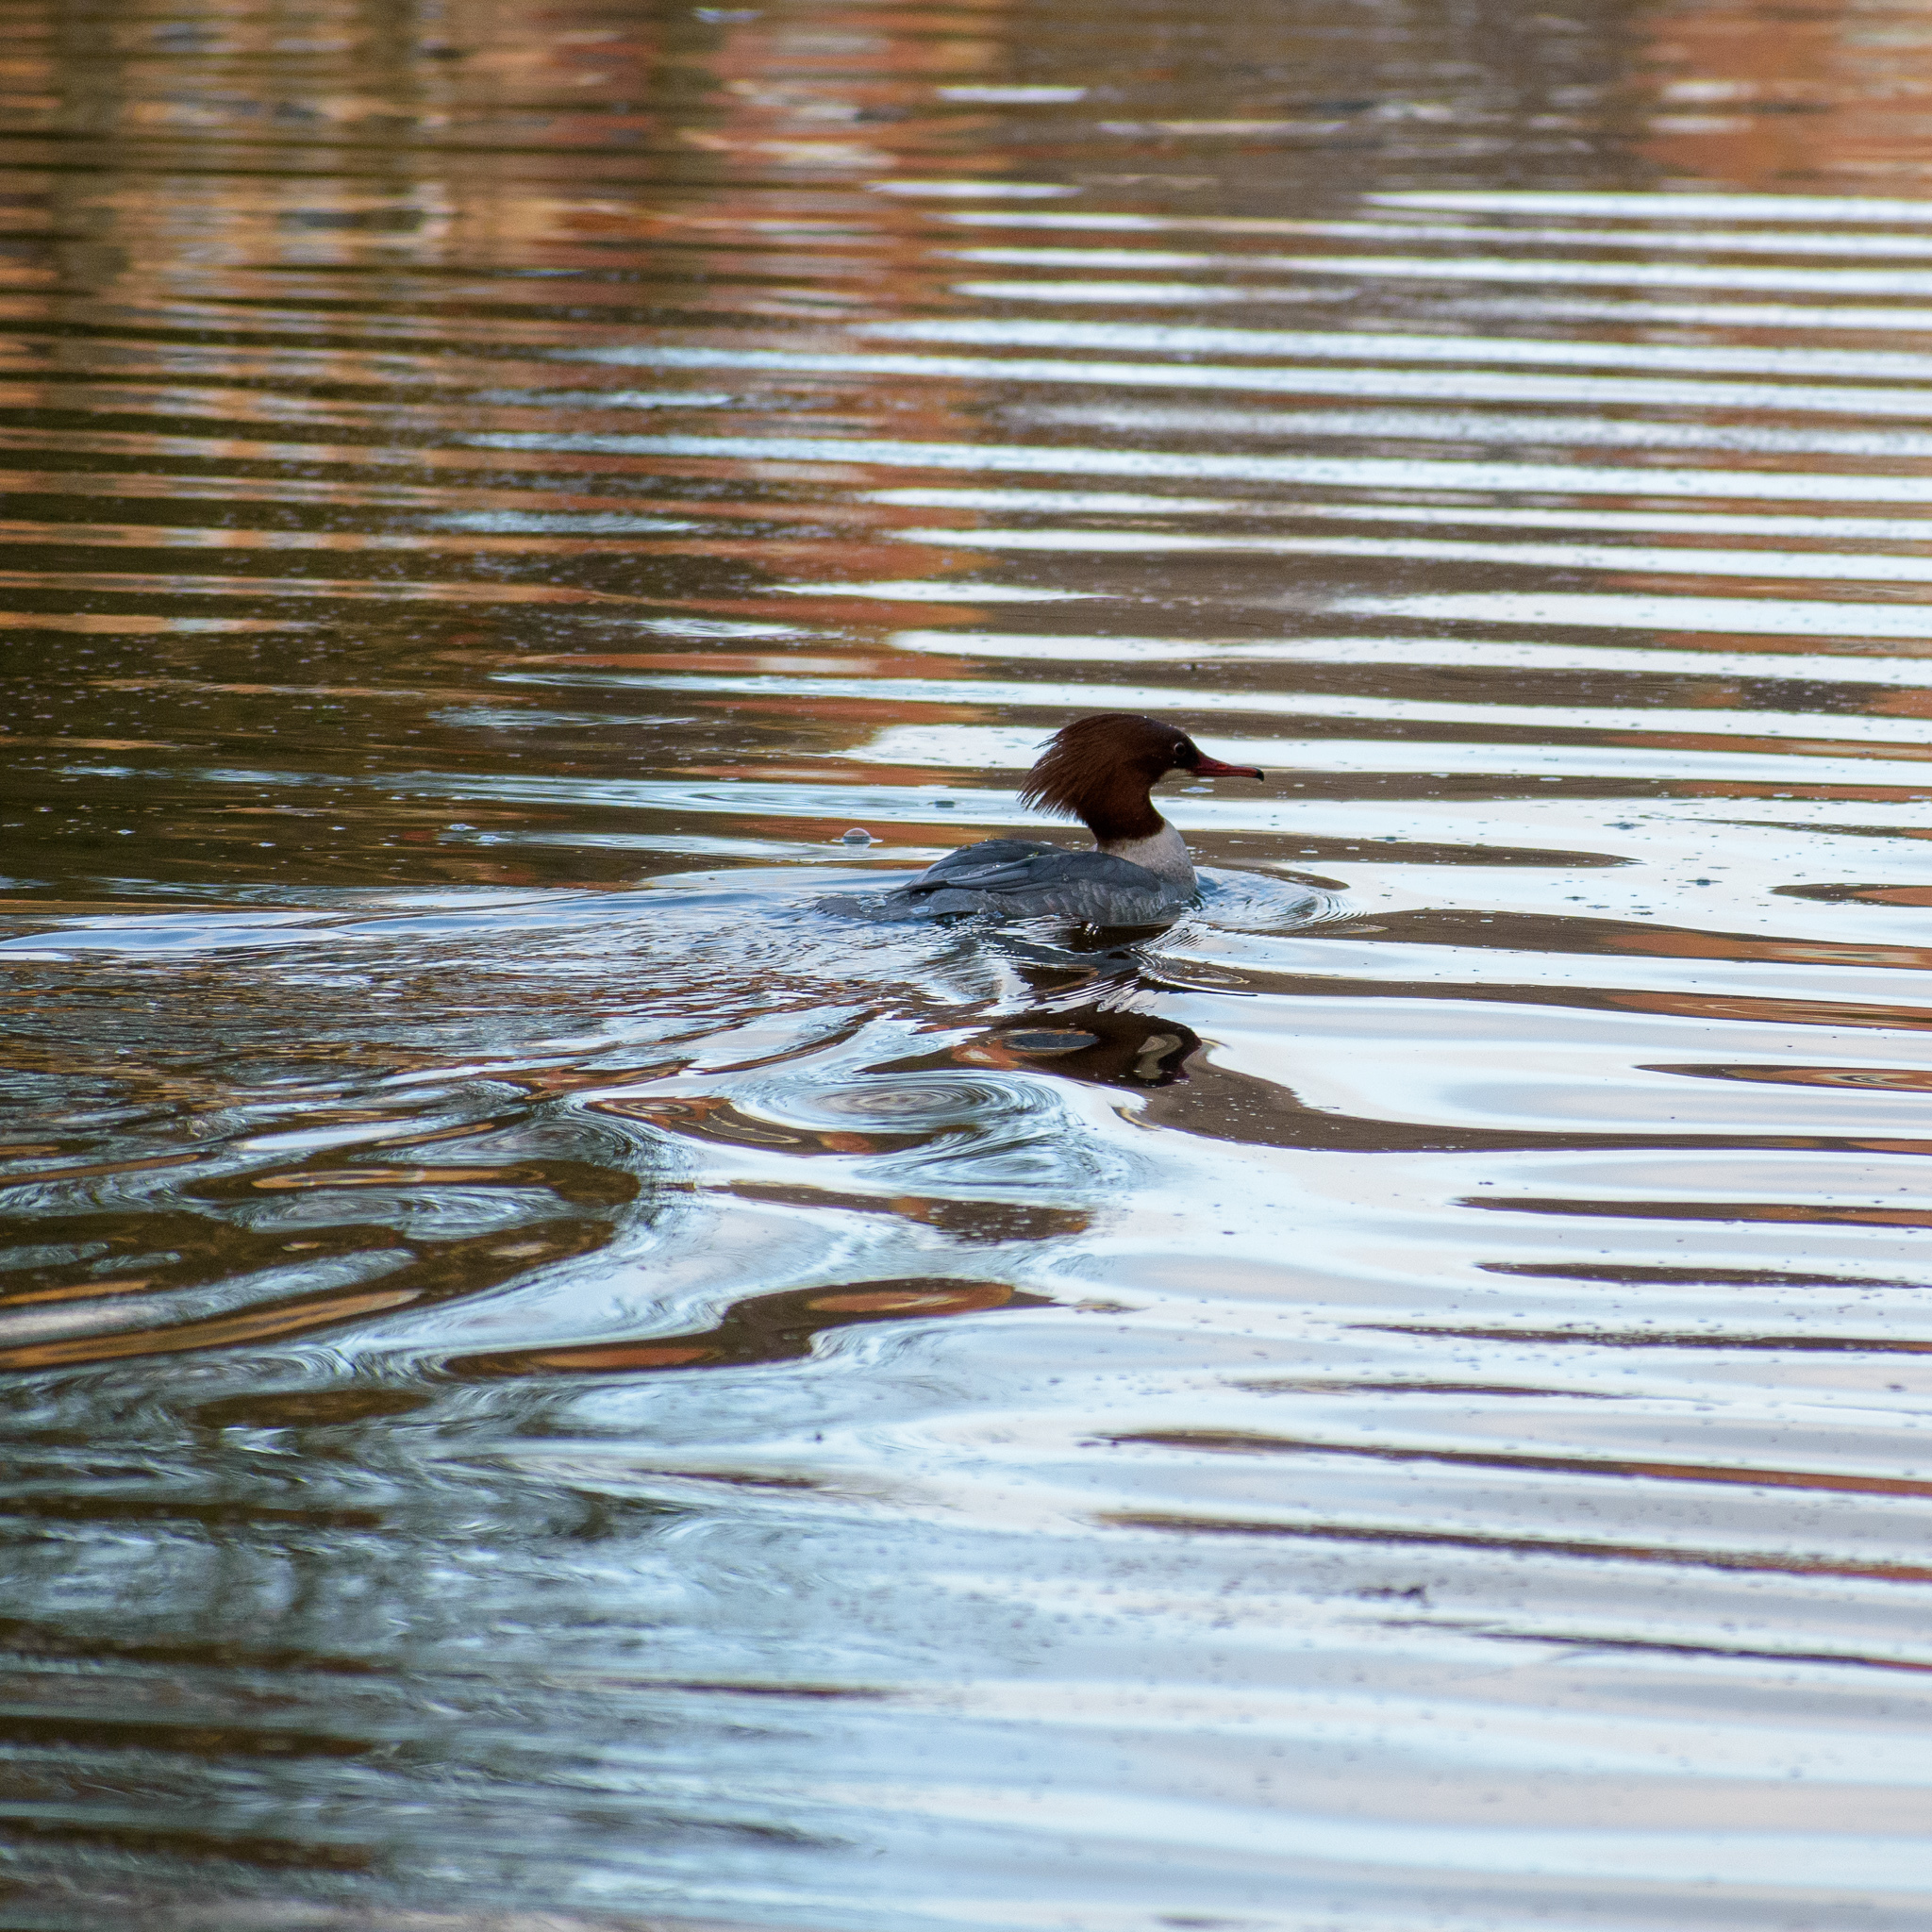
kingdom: Animalia
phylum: Chordata
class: Aves
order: Anseriformes
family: Anatidae
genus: Mergus
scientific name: Mergus merganser
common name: Common merganser
